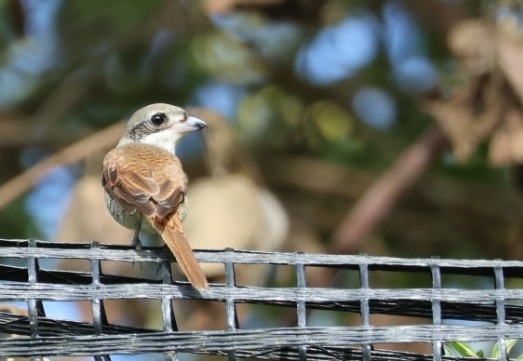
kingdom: Animalia
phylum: Chordata
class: Aves
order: Passeriformes
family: Laniidae
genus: Lanius
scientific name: Lanius tigrinus
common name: Tiger shrike
